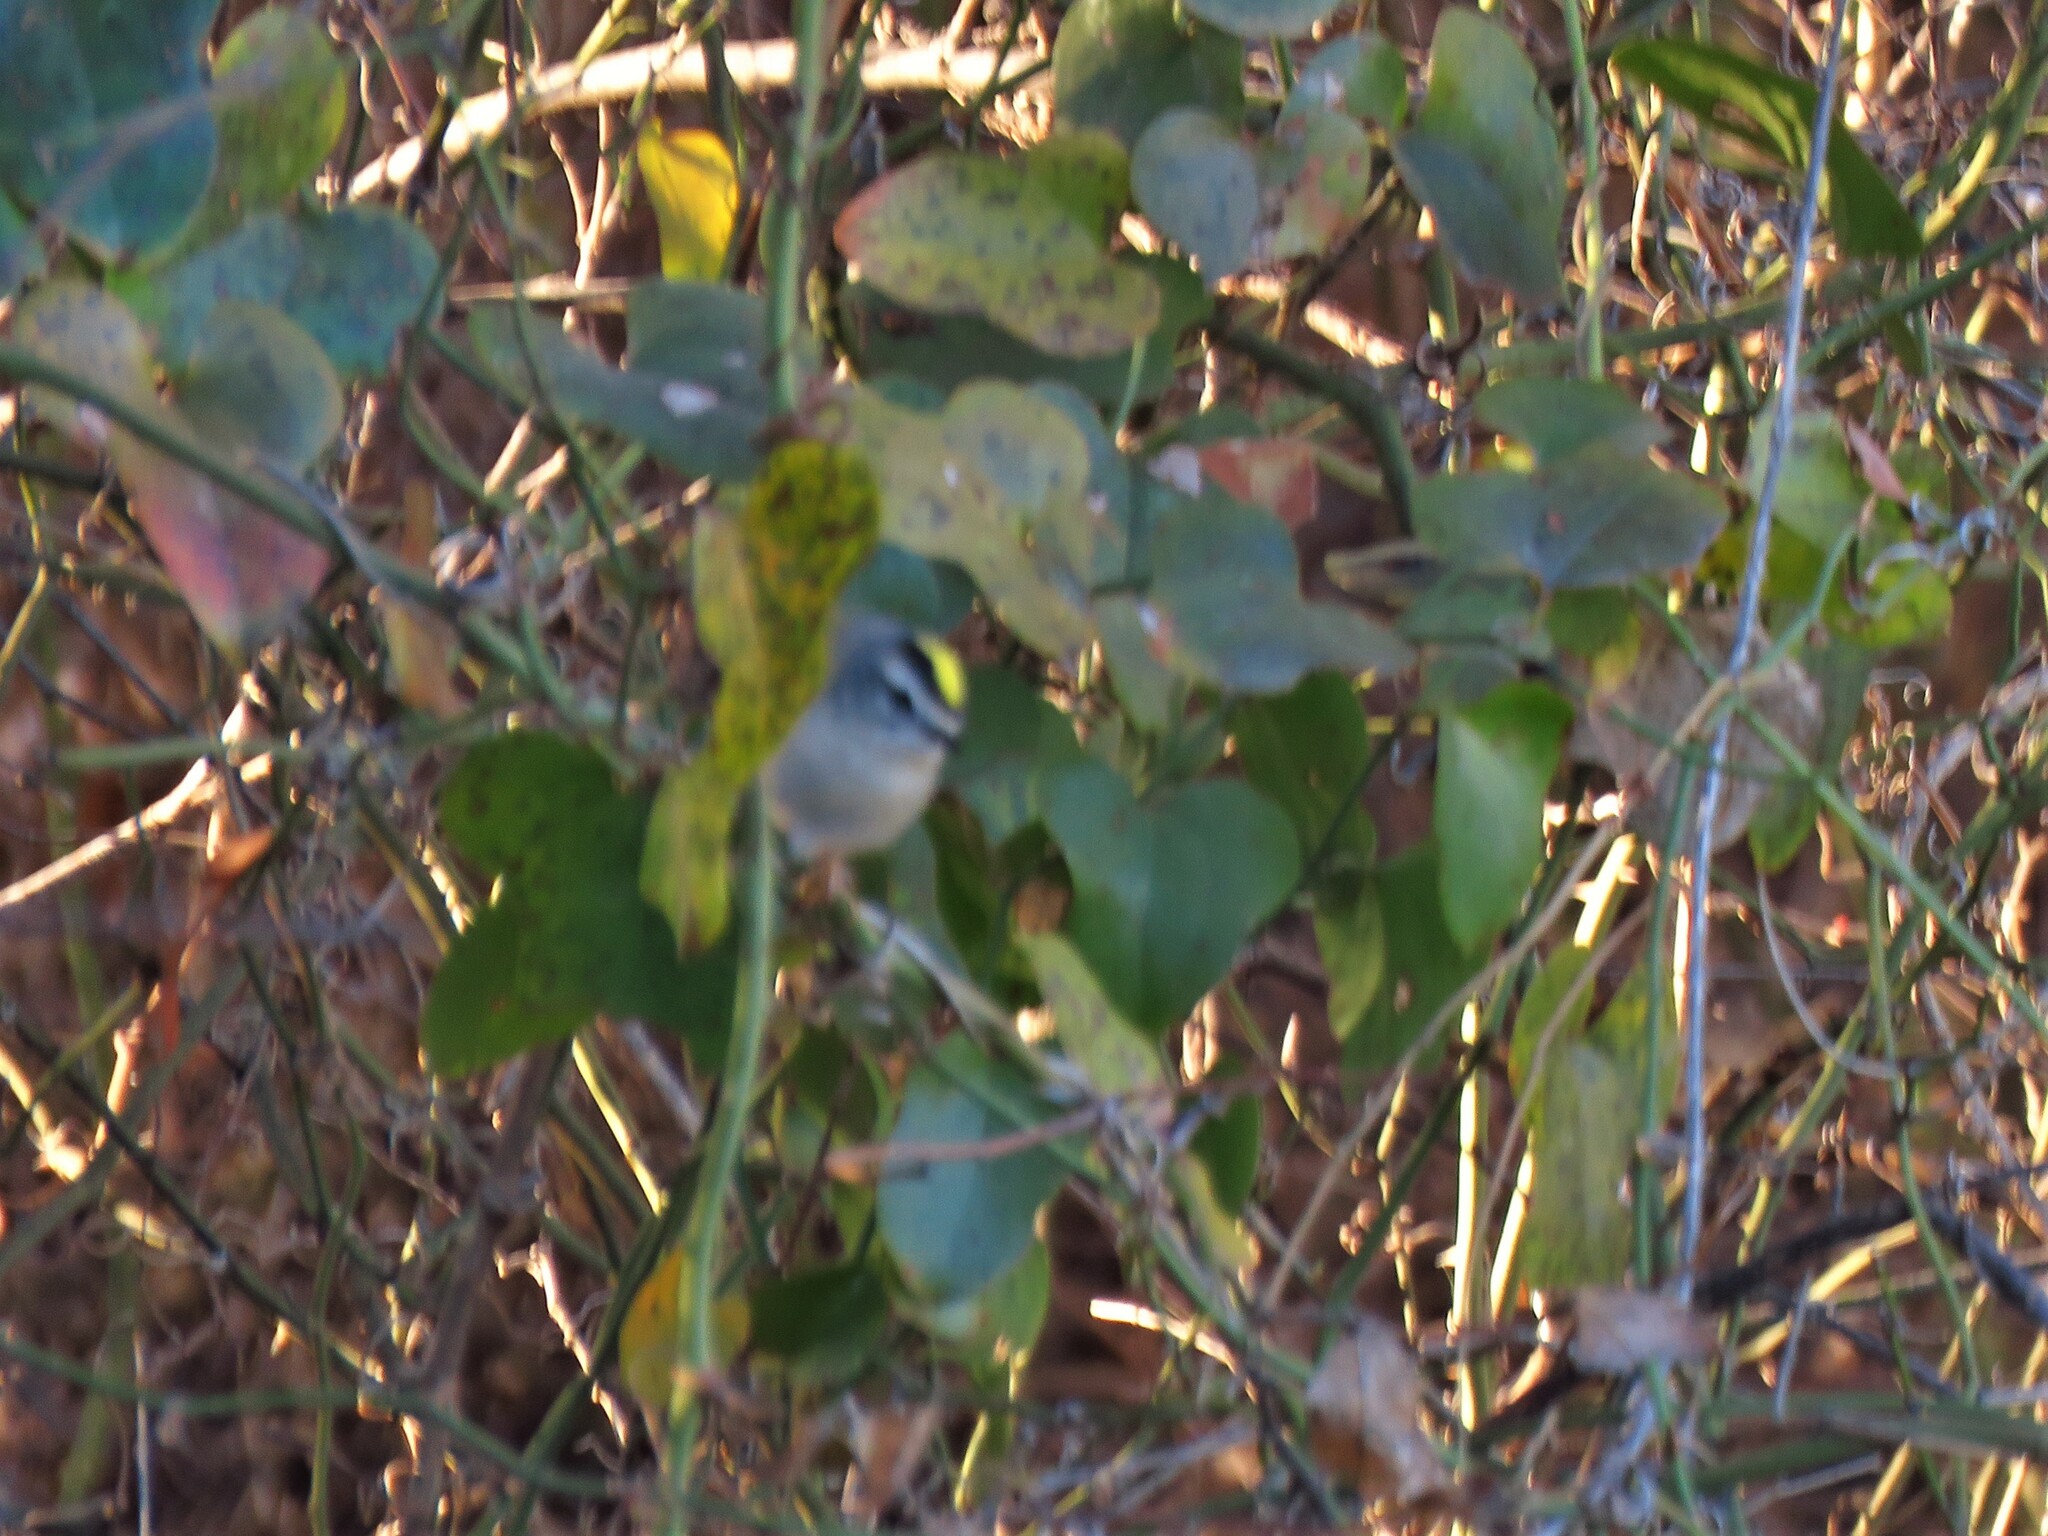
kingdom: Animalia
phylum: Chordata
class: Aves
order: Passeriformes
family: Regulidae
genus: Regulus
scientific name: Regulus satrapa
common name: Golden-crowned kinglet
